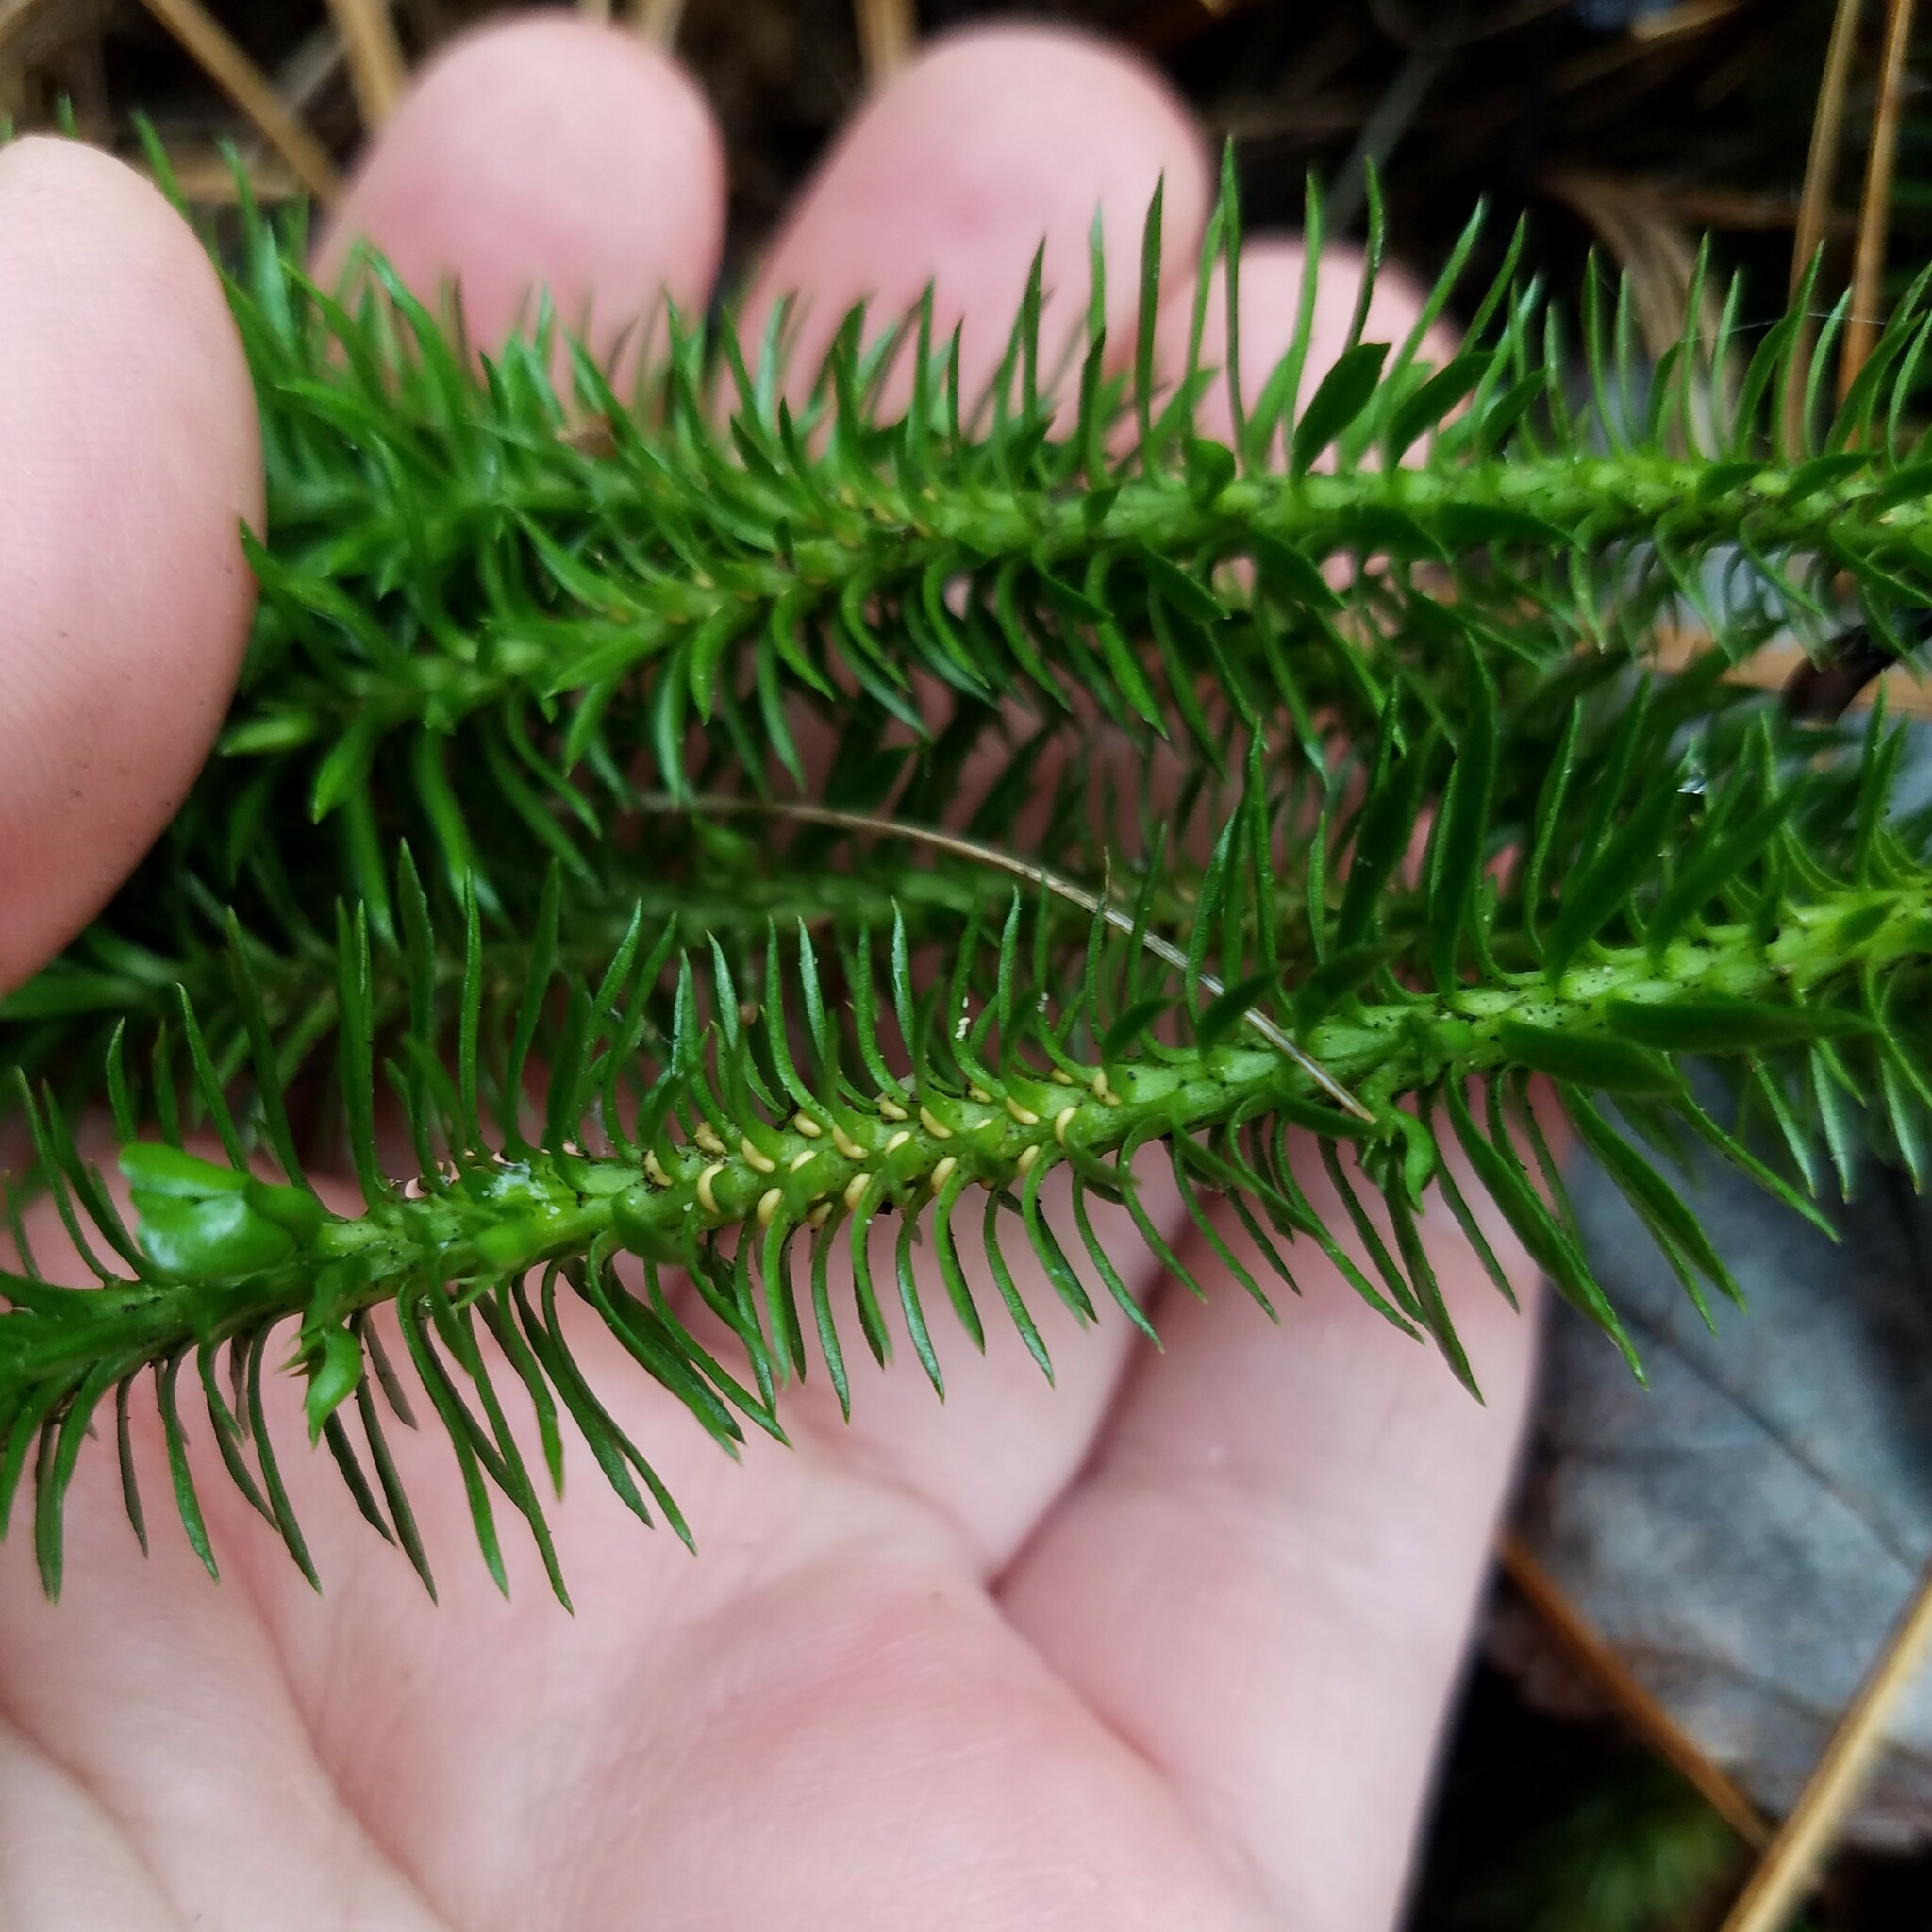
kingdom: Plantae
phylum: Tracheophyta
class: Lycopodiopsida
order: Lycopodiales
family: Lycopodiaceae
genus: Huperzia
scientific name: Huperzia lucidula
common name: Shining clubmoss
